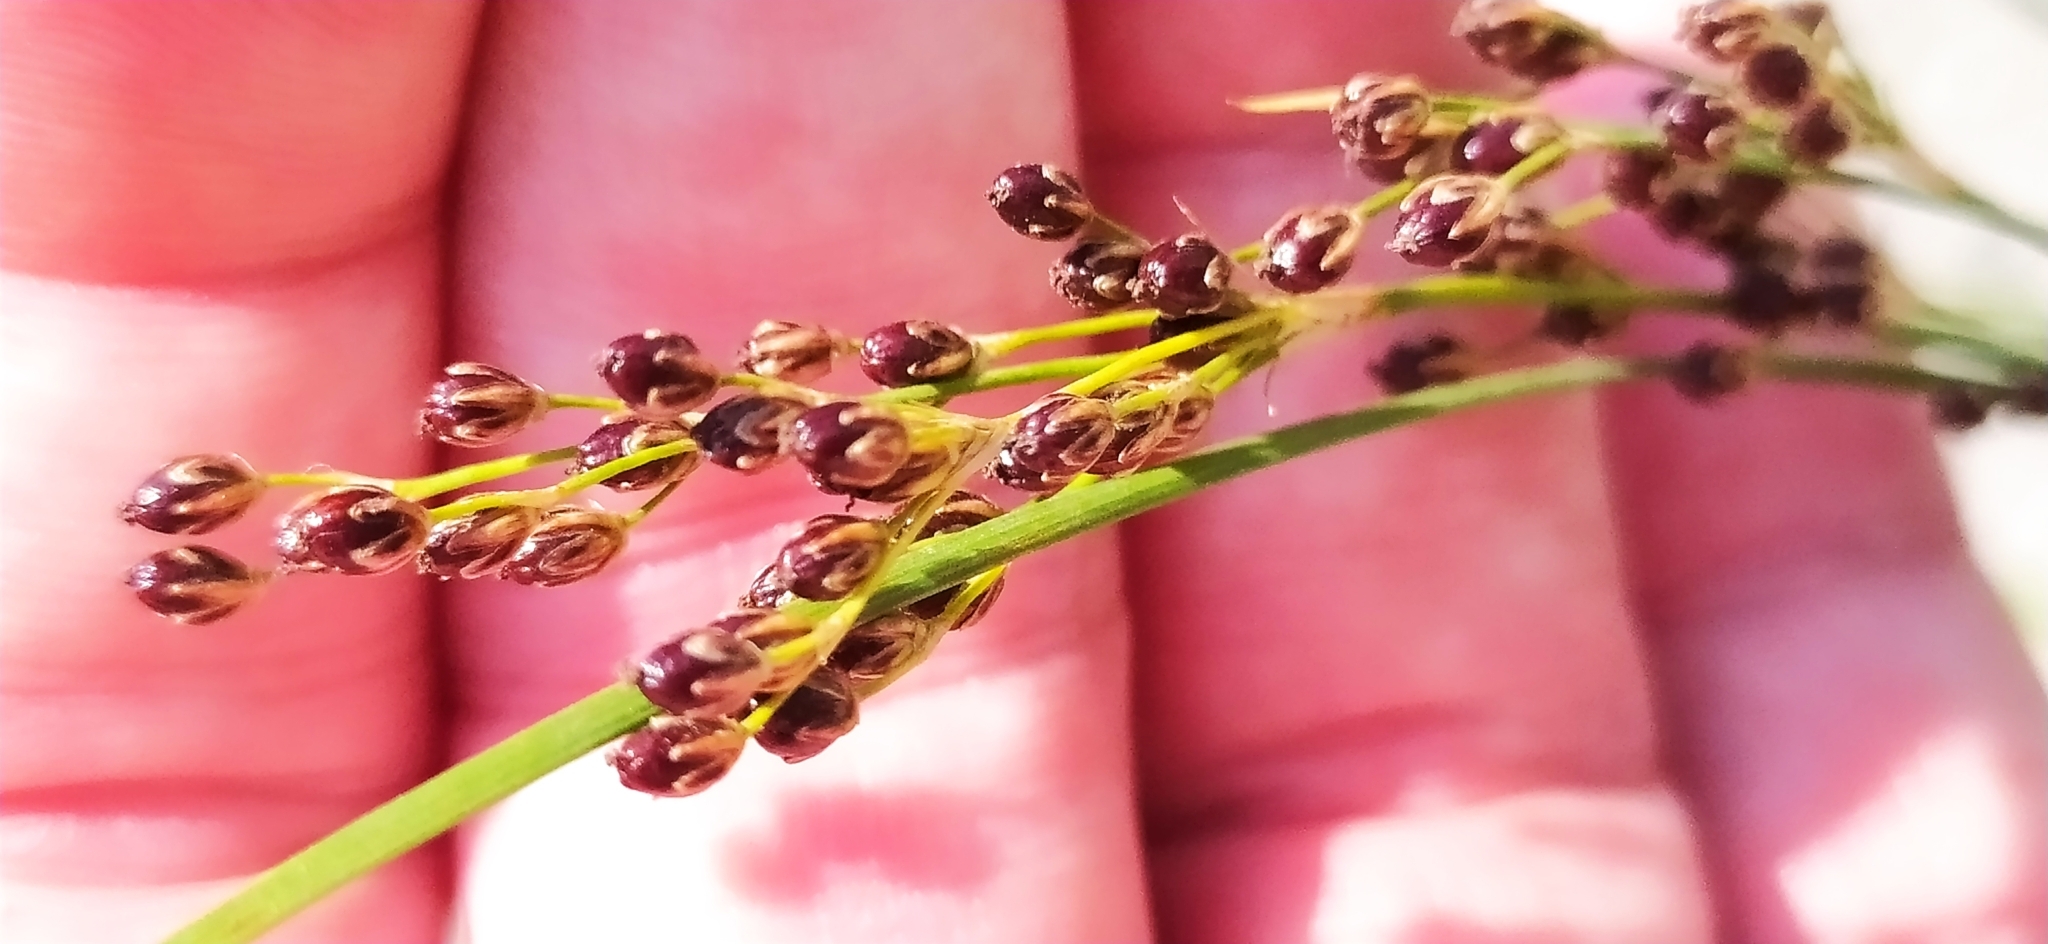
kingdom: Plantae
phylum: Tracheophyta
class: Liliopsida
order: Poales
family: Juncaceae
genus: Juncus
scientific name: Juncus compressus
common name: Round-fruited rush
